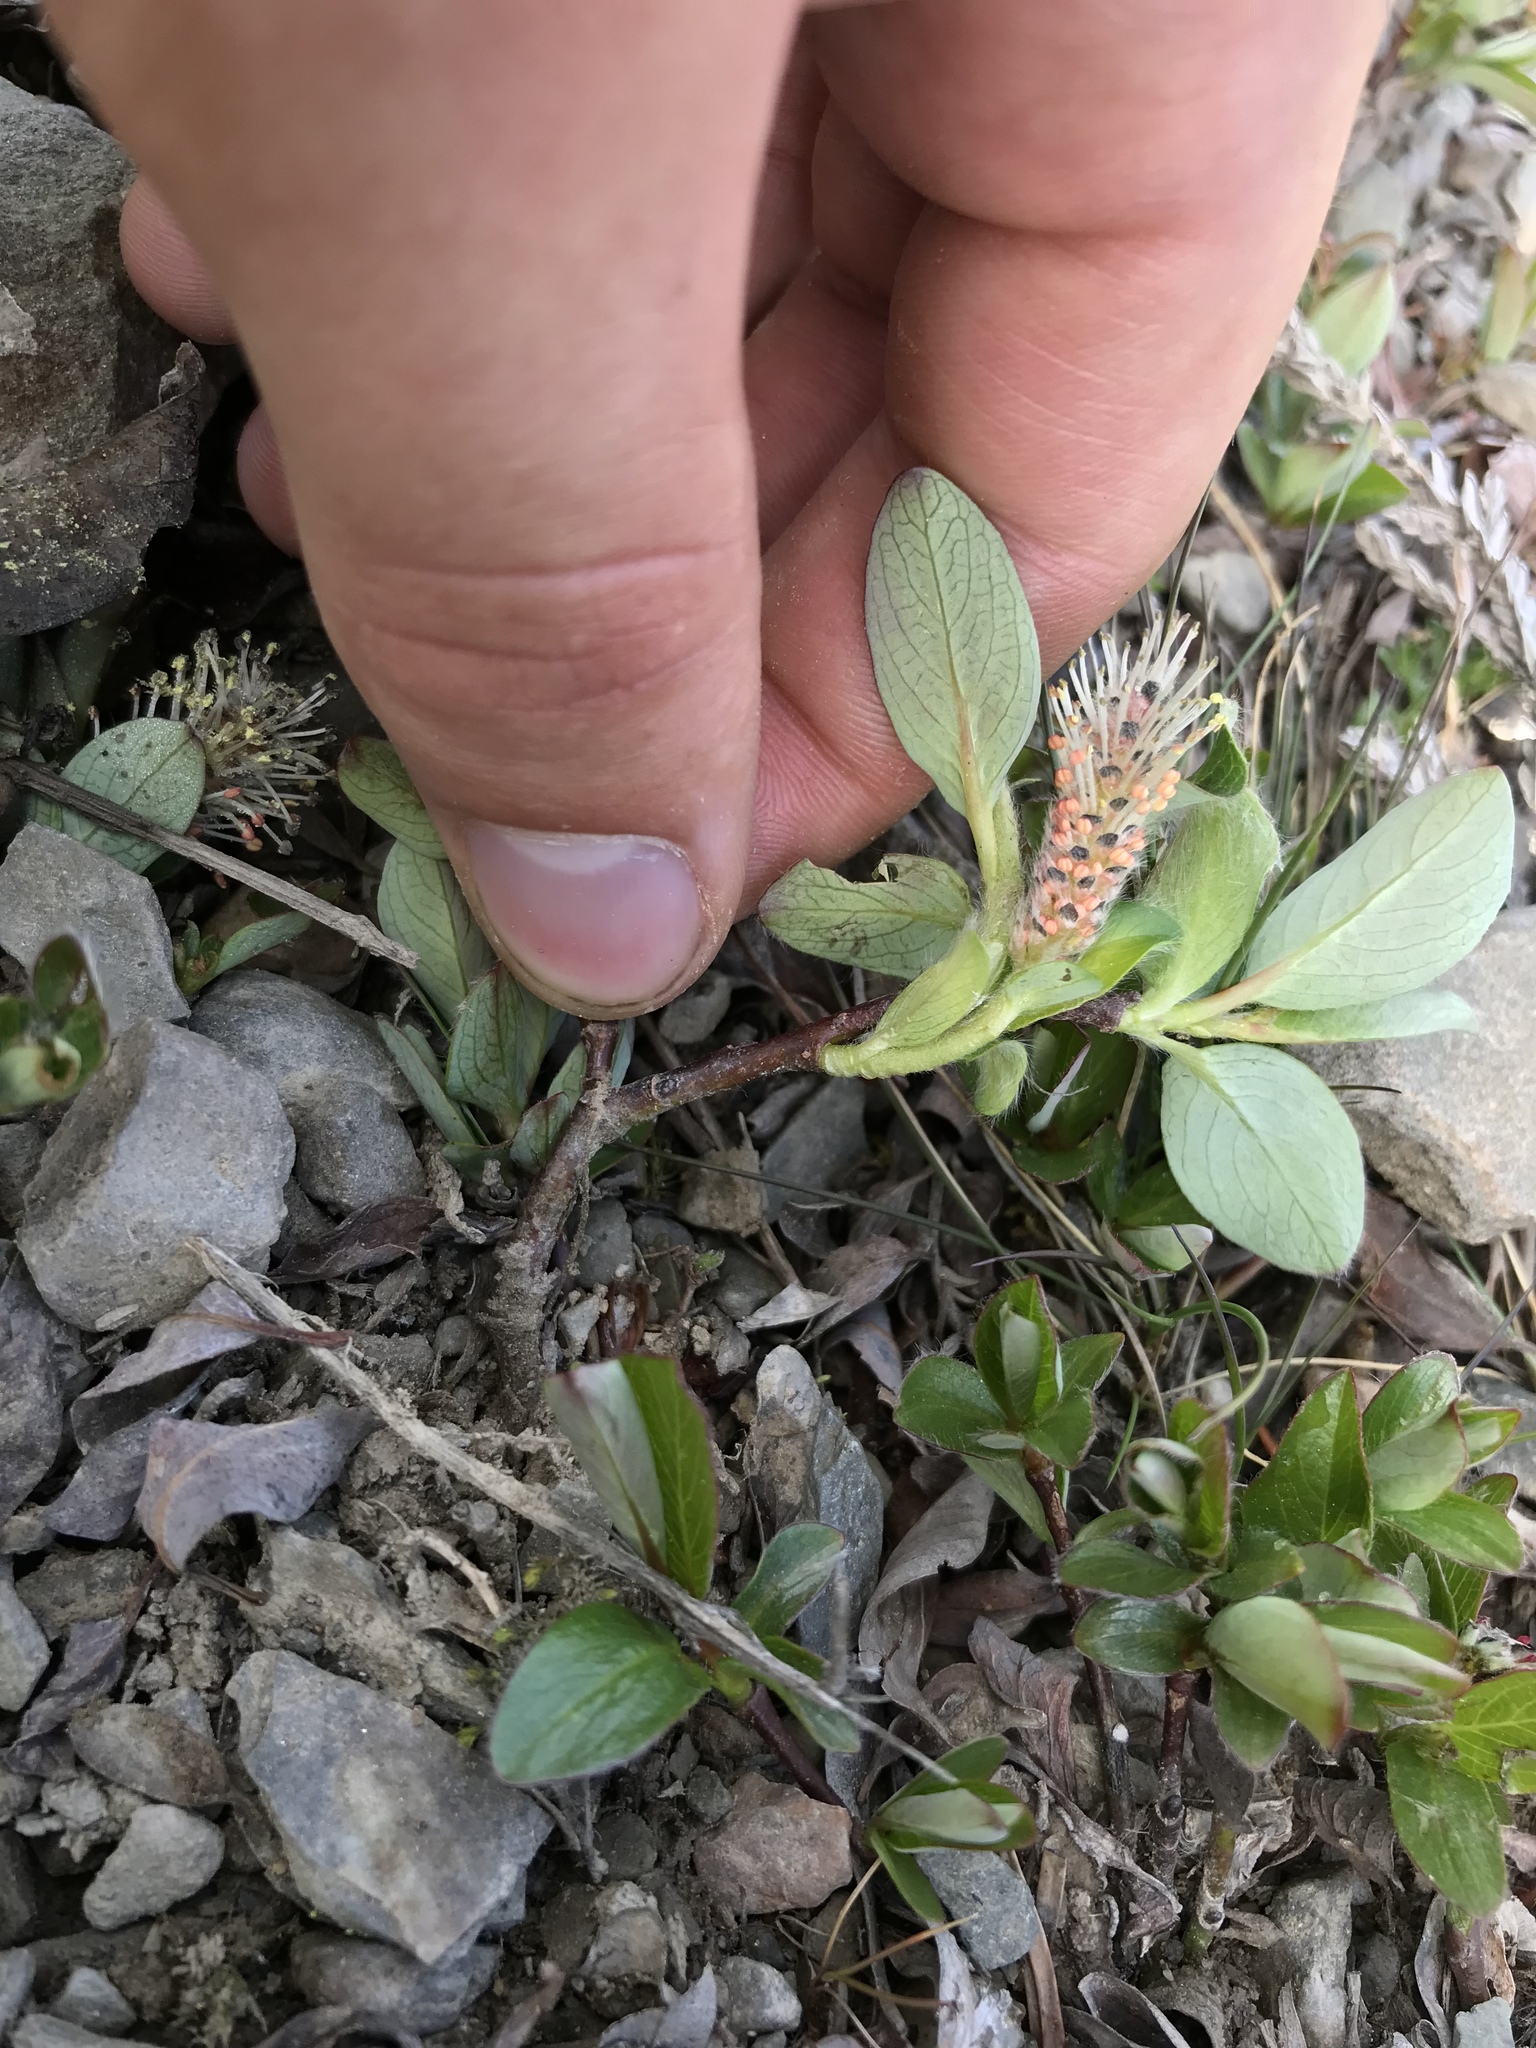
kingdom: Plantae
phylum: Tracheophyta
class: Magnoliopsida
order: Malpighiales
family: Salicaceae
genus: Salix
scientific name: Salix arctica
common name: Arctic willow
